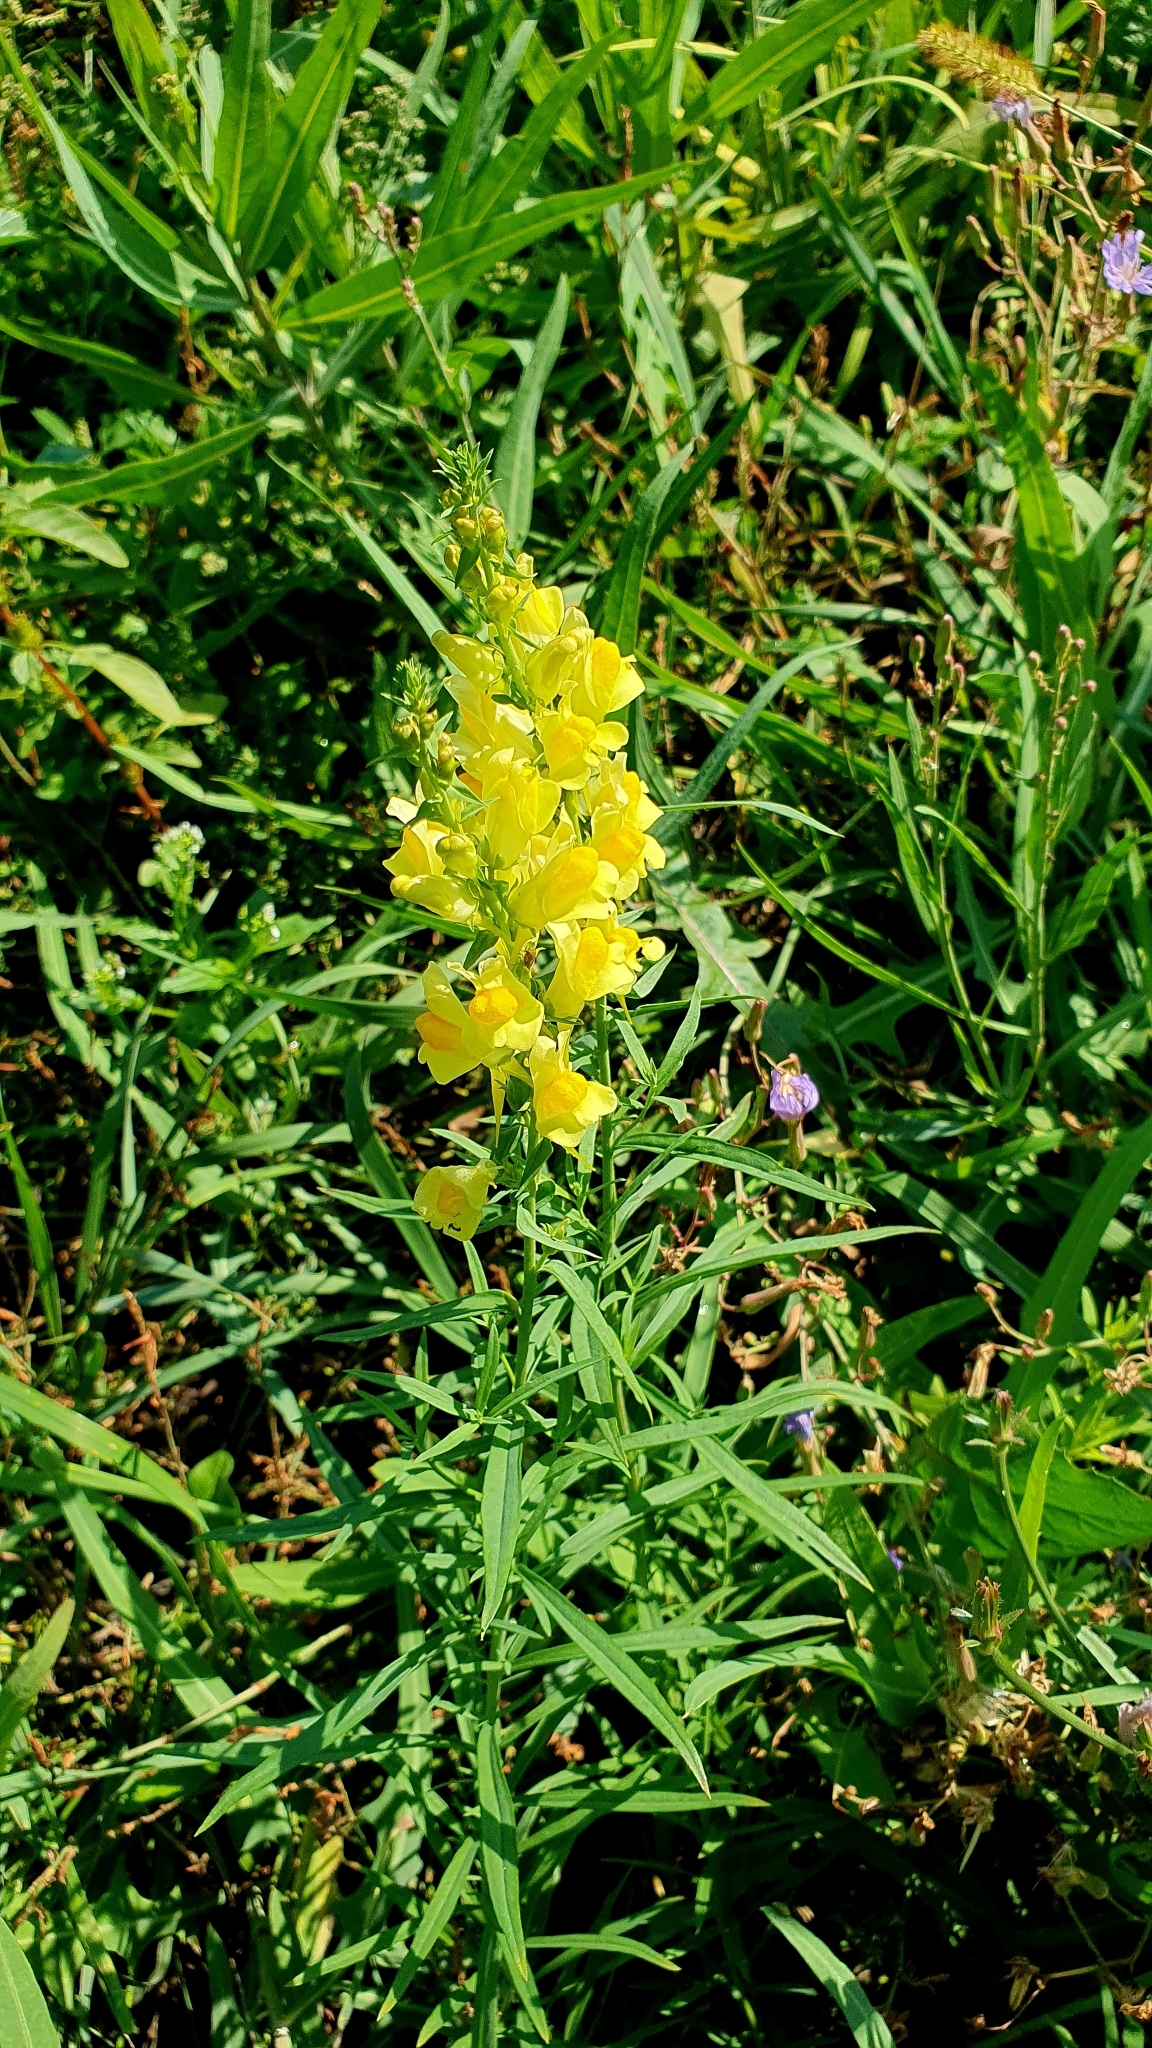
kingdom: Plantae
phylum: Tracheophyta
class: Magnoliopsida
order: Lamiales
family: Plantaginaceae
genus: Linaria
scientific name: Linaria vulgaris
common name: Butter and eggs
